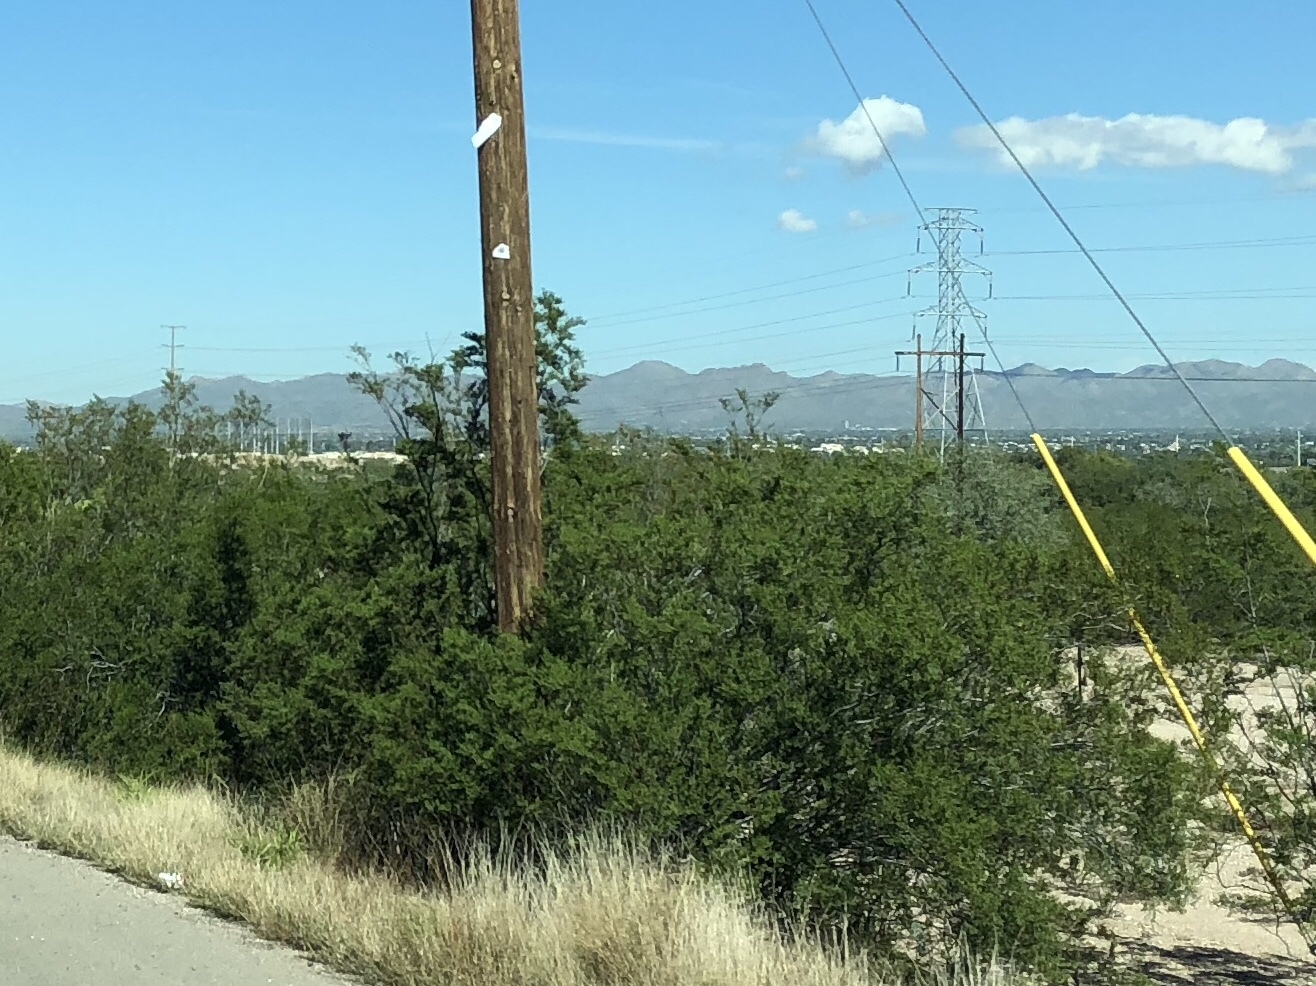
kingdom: Plantae
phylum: Tracheophyta
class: Magnoliopsida
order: Zygophyllales
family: Zygophyllaceae
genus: Larrea
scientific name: Larrea tridentata
